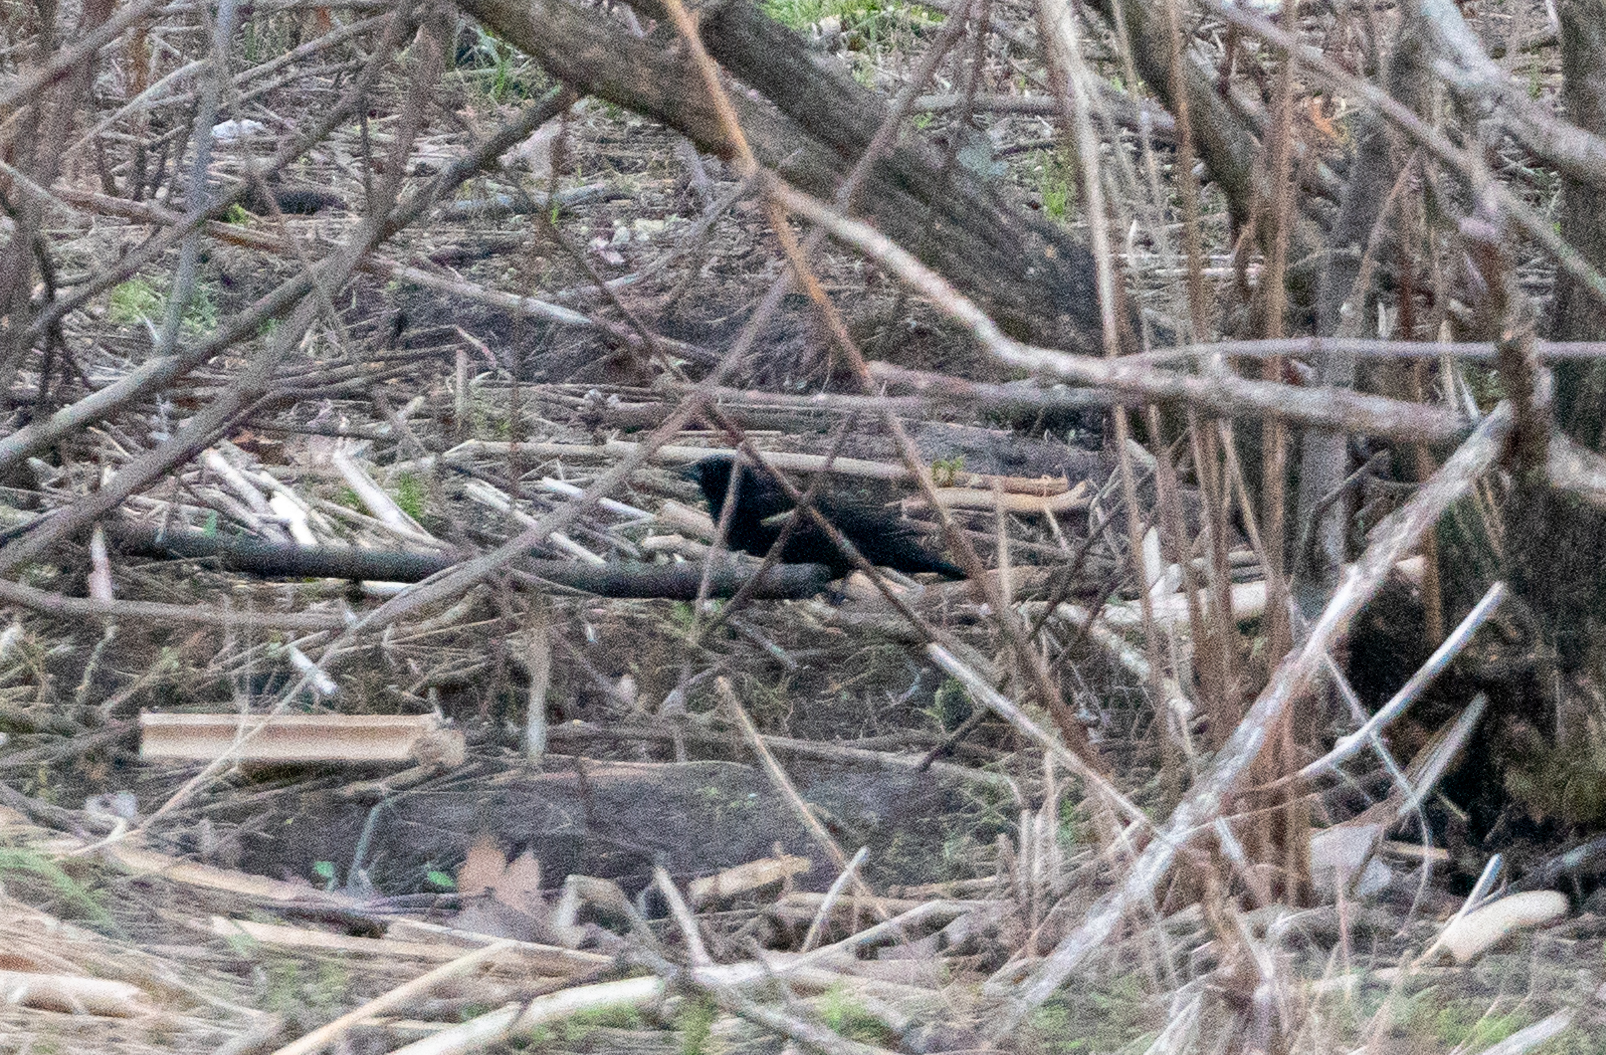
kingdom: Animalia
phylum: Chordata
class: Aves
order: Passeriformes
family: Icteridae
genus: Agelaius
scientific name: Agelaius phoeniceus
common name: Red-winged blackbird
